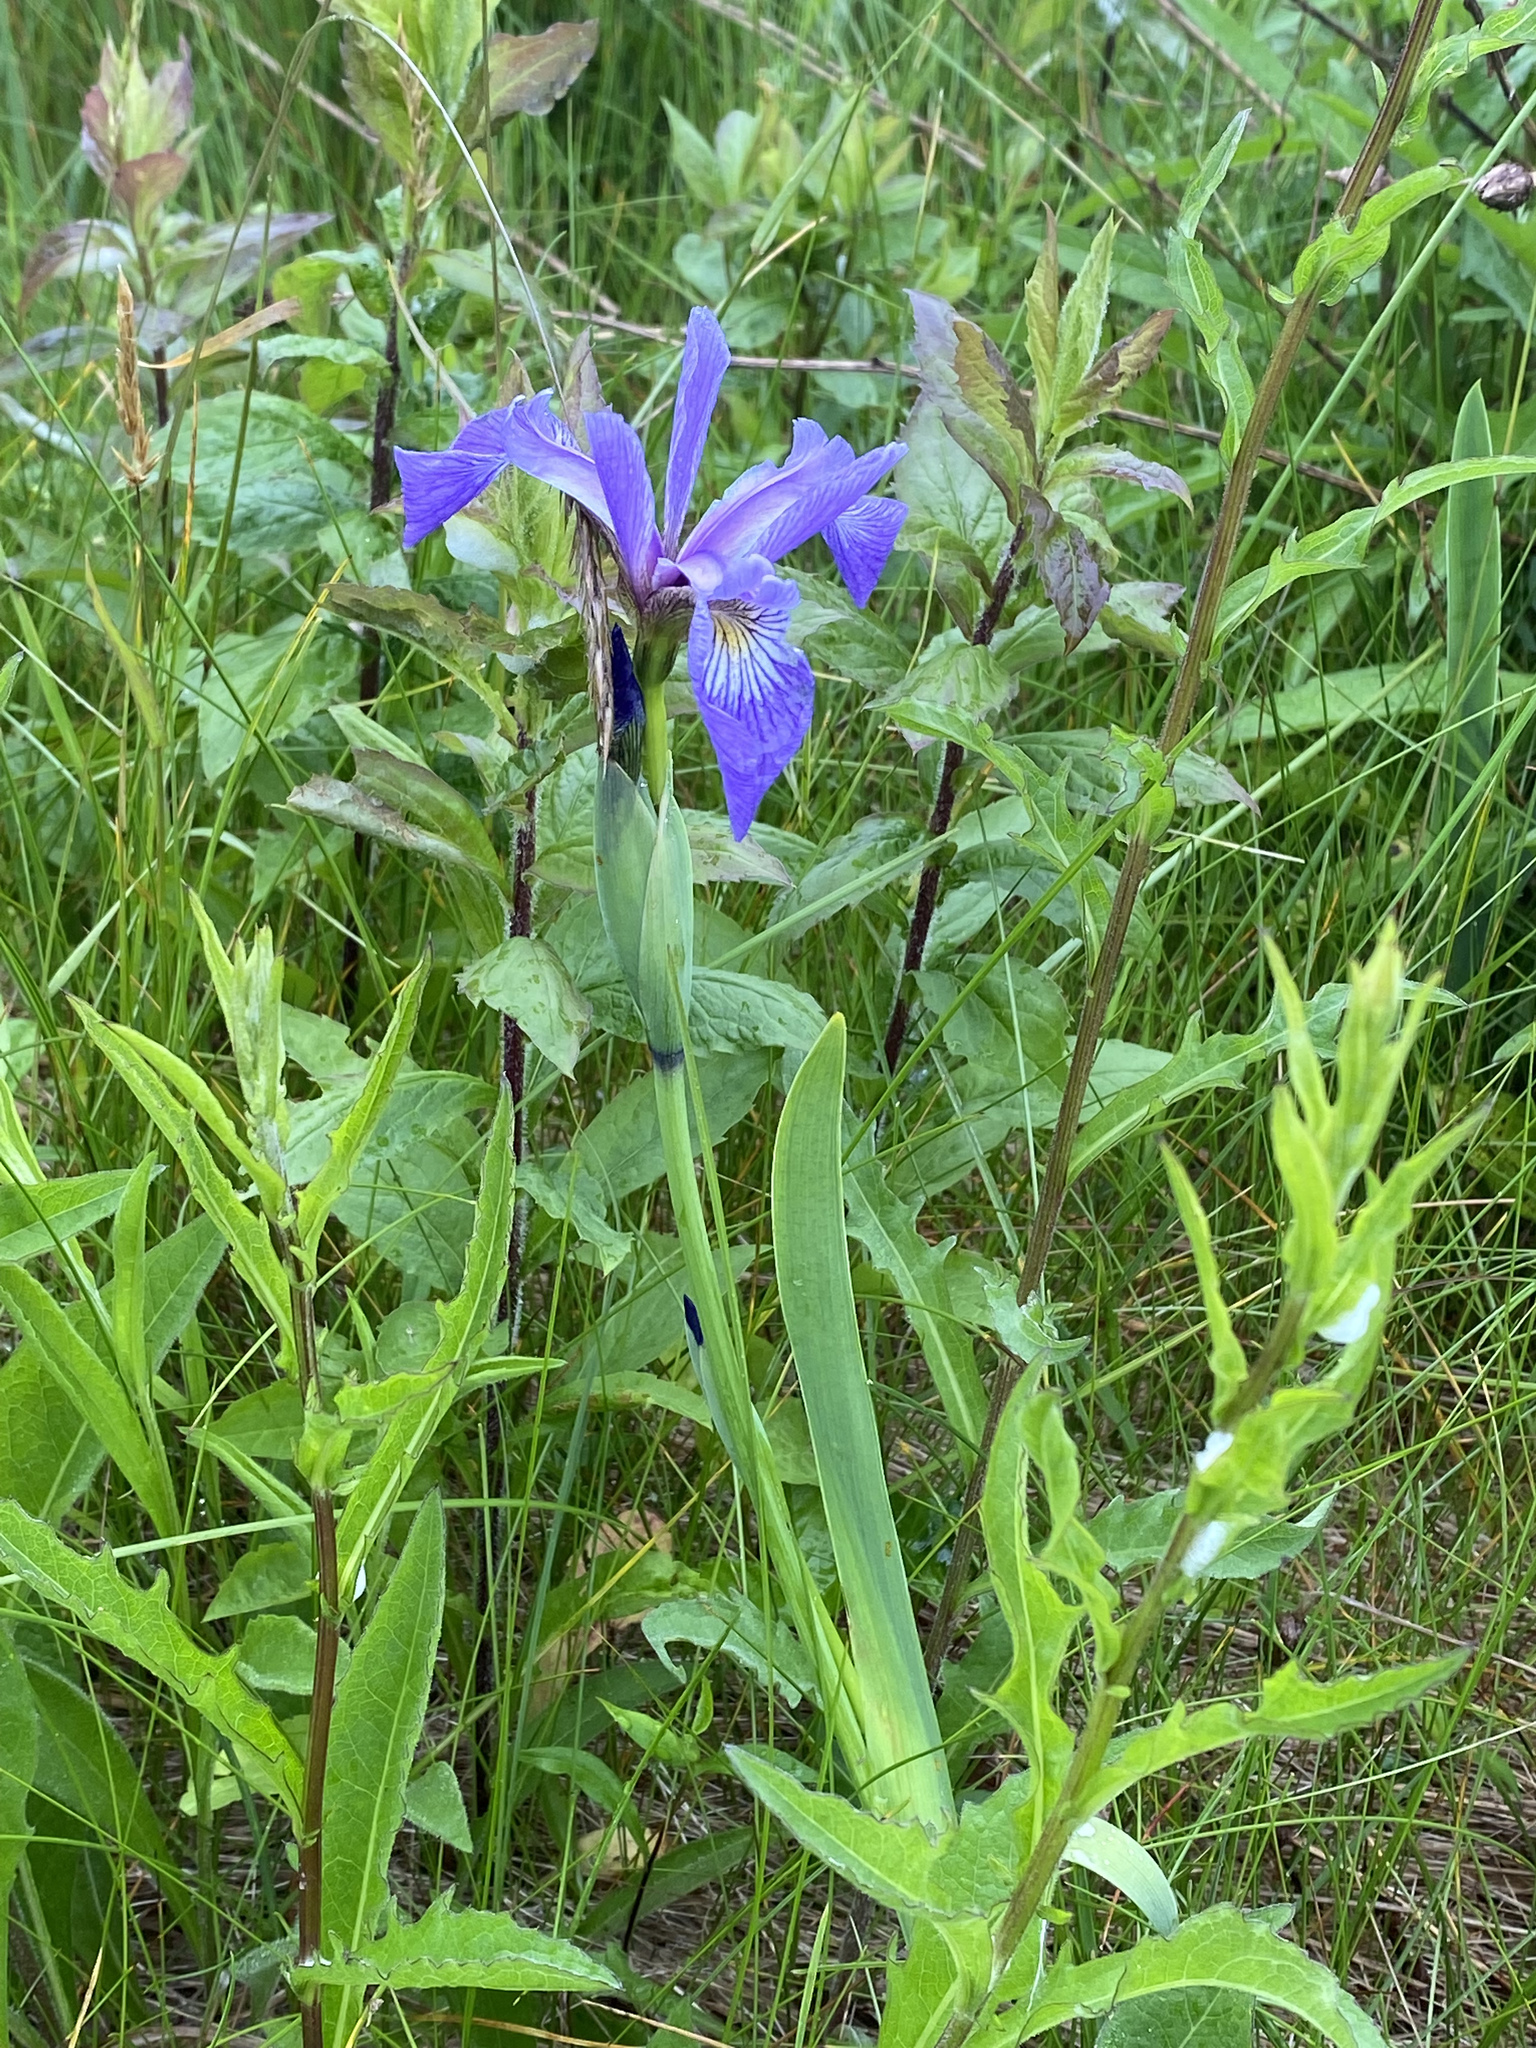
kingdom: Plantae
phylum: Tracheophyta
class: Liliopsida
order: Asparagales
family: Iridaceae
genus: Iris
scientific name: Iris versicolor
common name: Purple iris
